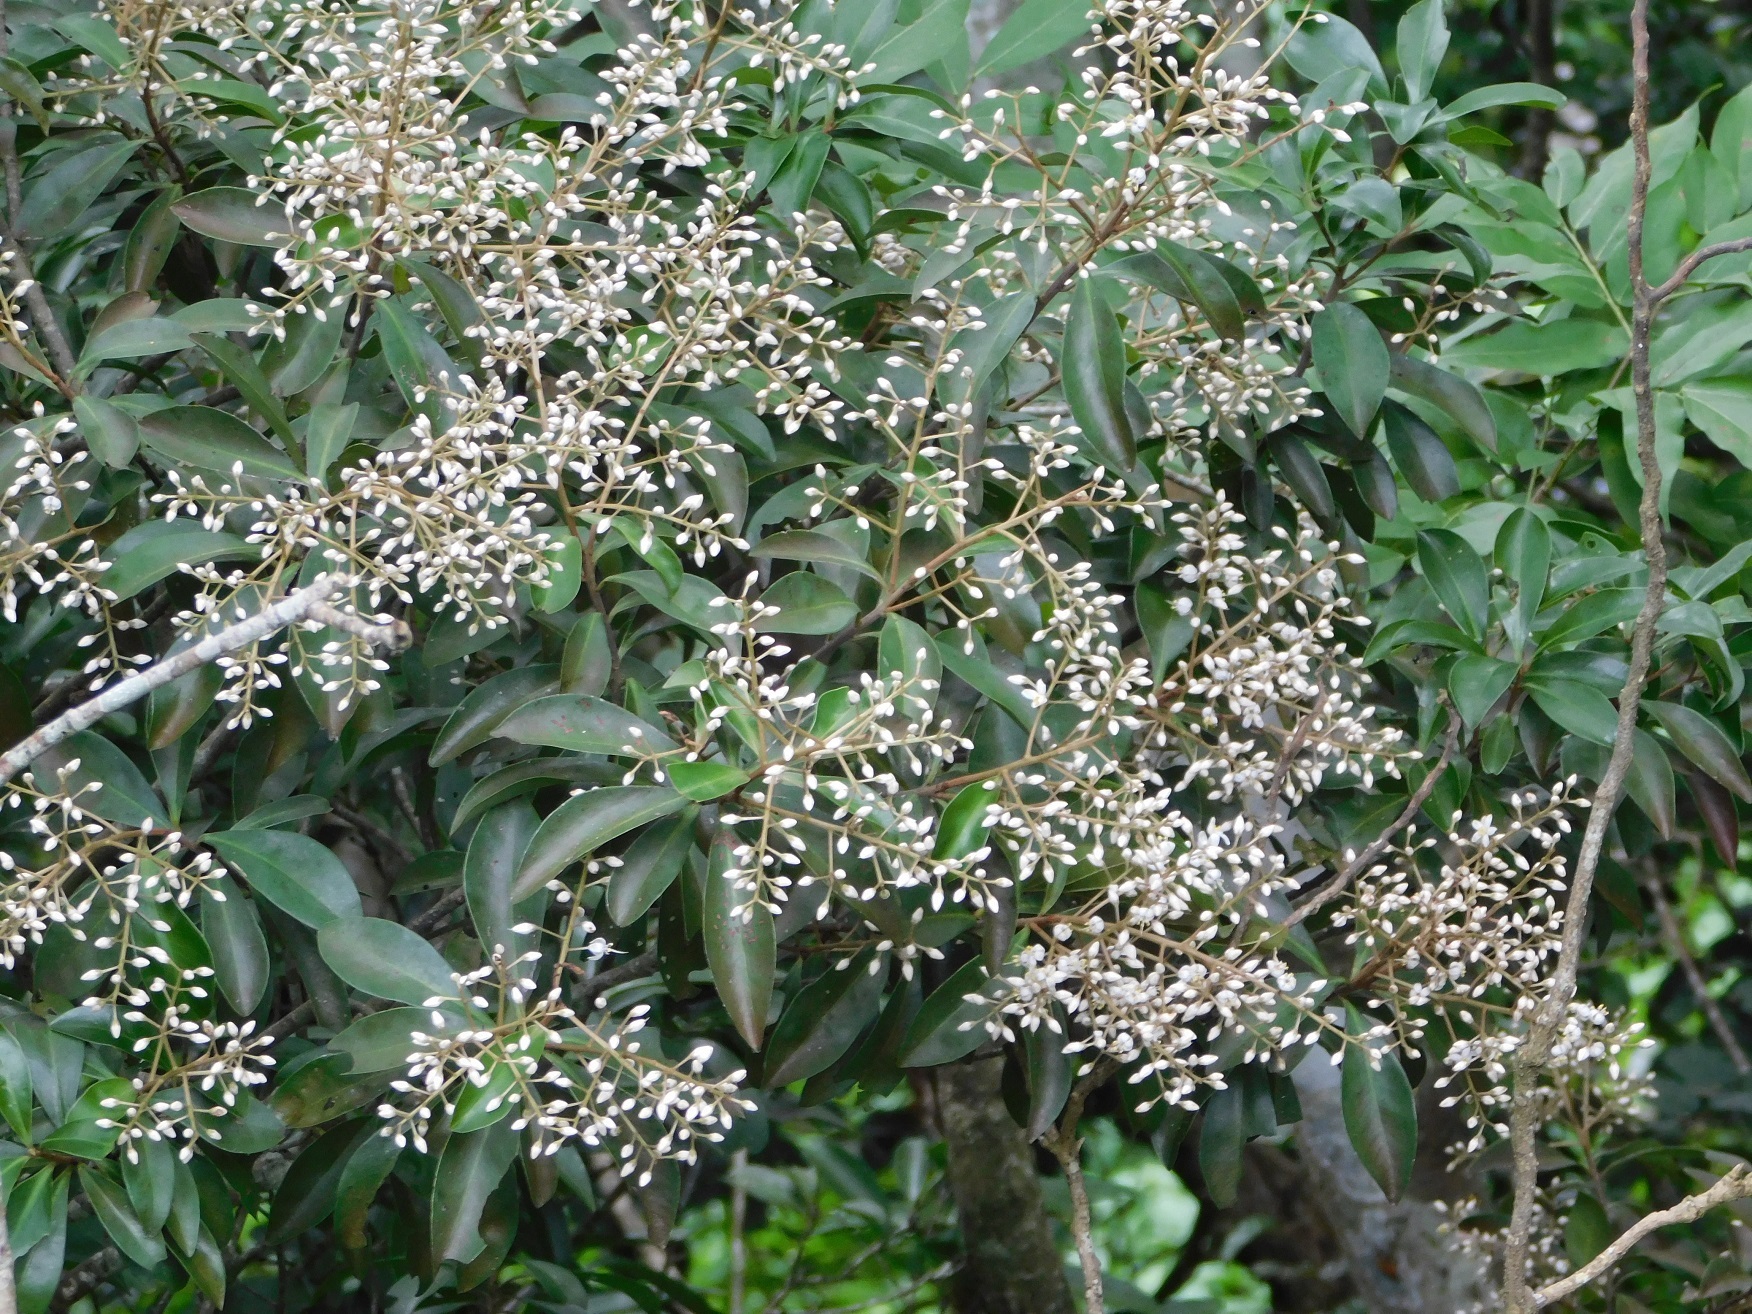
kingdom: Plantae
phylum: Tracheophyta
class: Magnoliopsida
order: Ericales
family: Primulaceae
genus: Ardisia
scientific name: Ardisia escallonioides
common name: Island marlberry
